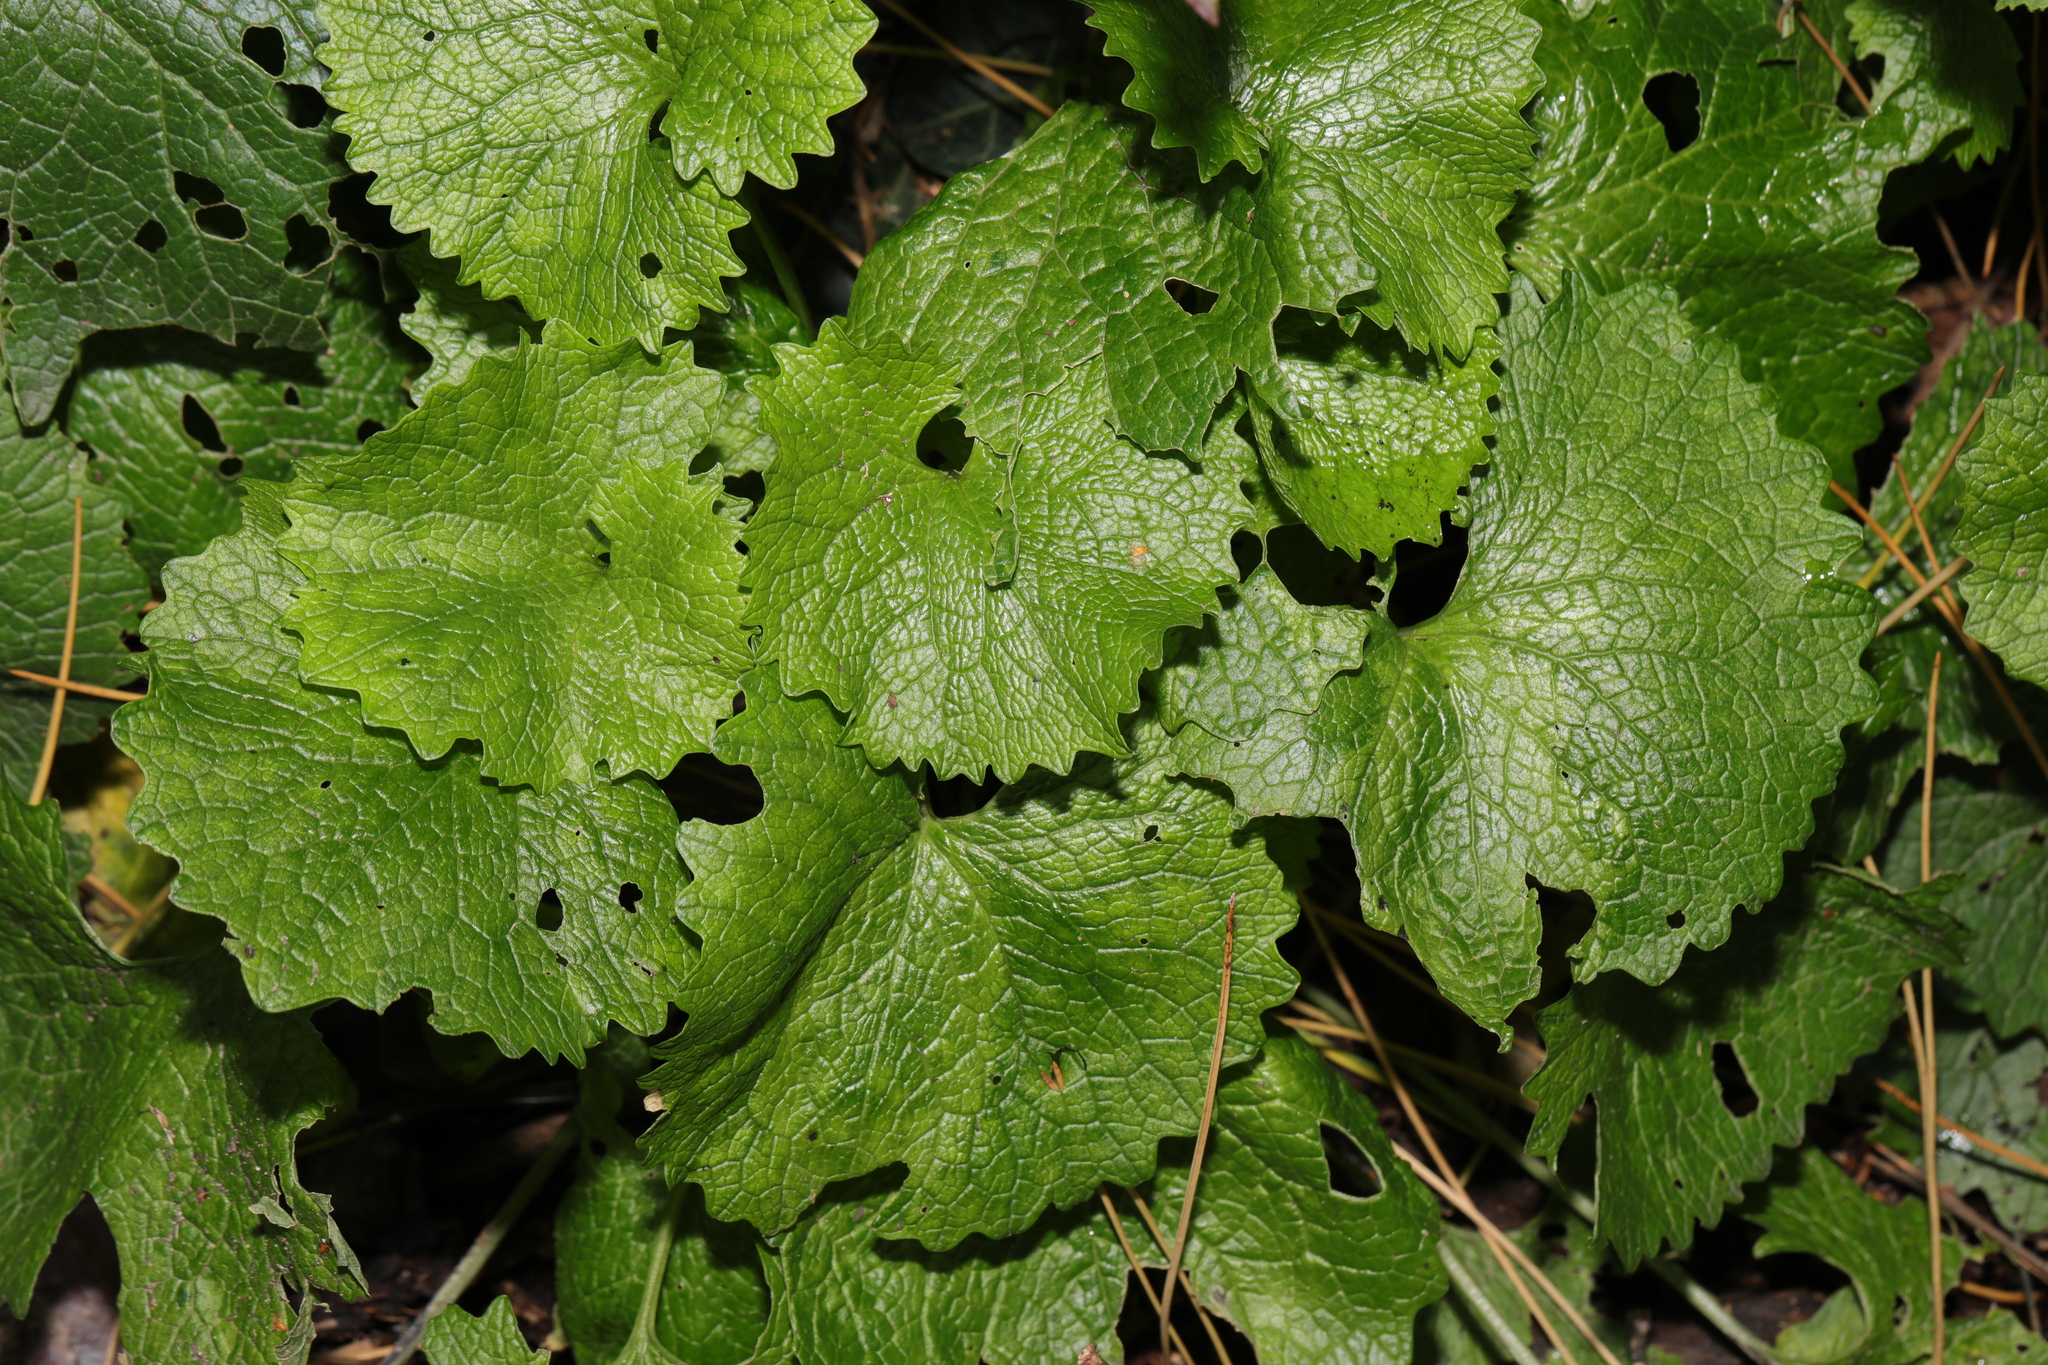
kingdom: Plantae
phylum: Tracheophyta
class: Magnoliopsida
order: Brassicales
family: Brassicaceae
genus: Alliaria
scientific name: Alliaria petiolata
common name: Garlic mustard
